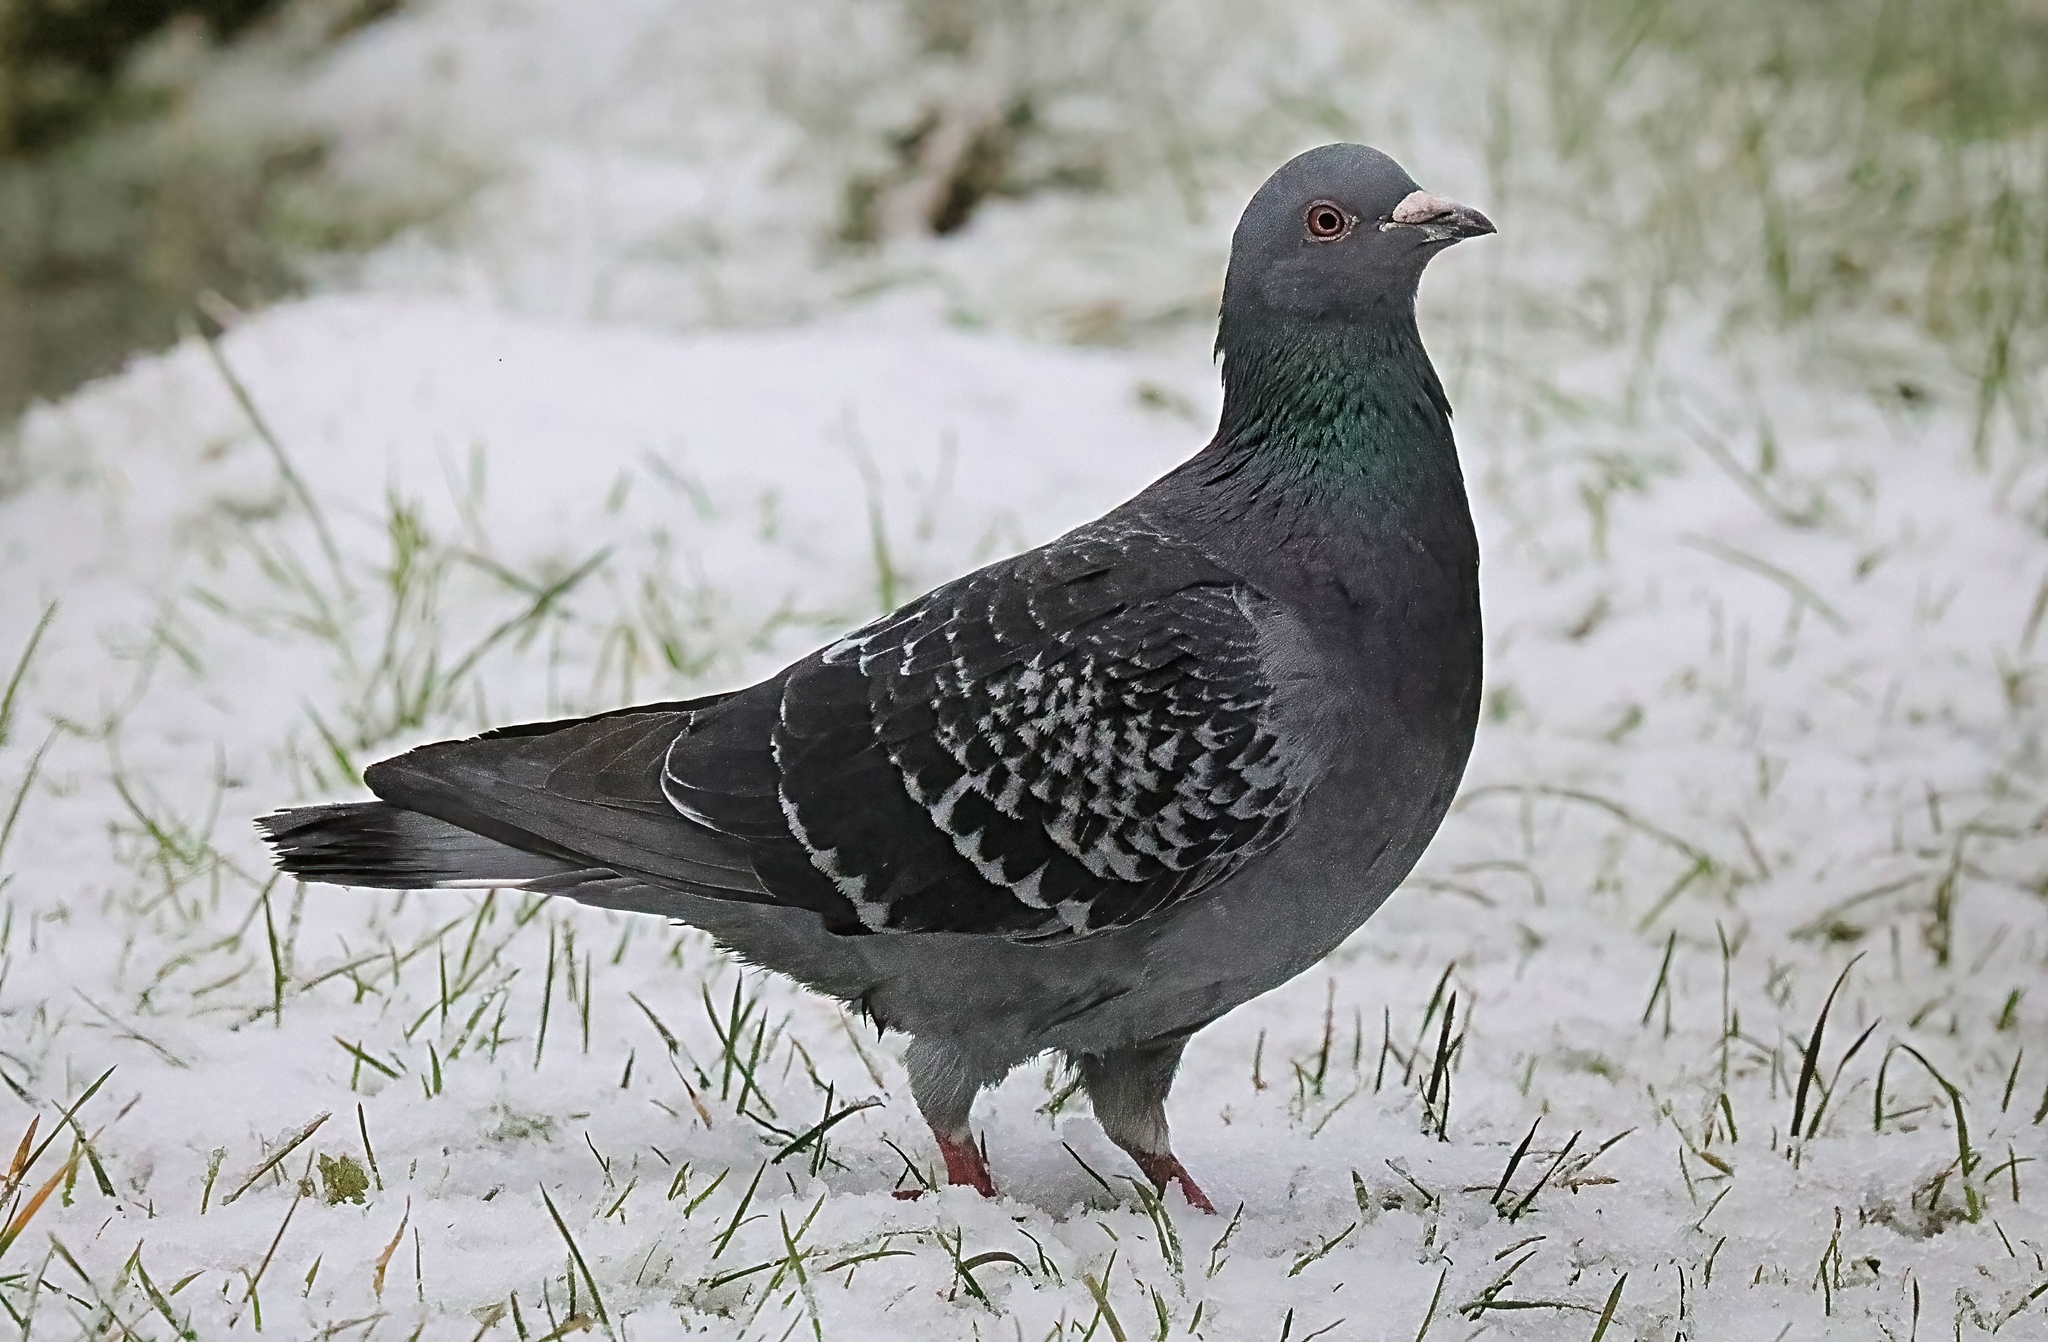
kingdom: Animalia
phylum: Chordata
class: Aves
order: Columbiformes
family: Columbidae
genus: Columba
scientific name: Columba livia
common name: Rock pigeon
